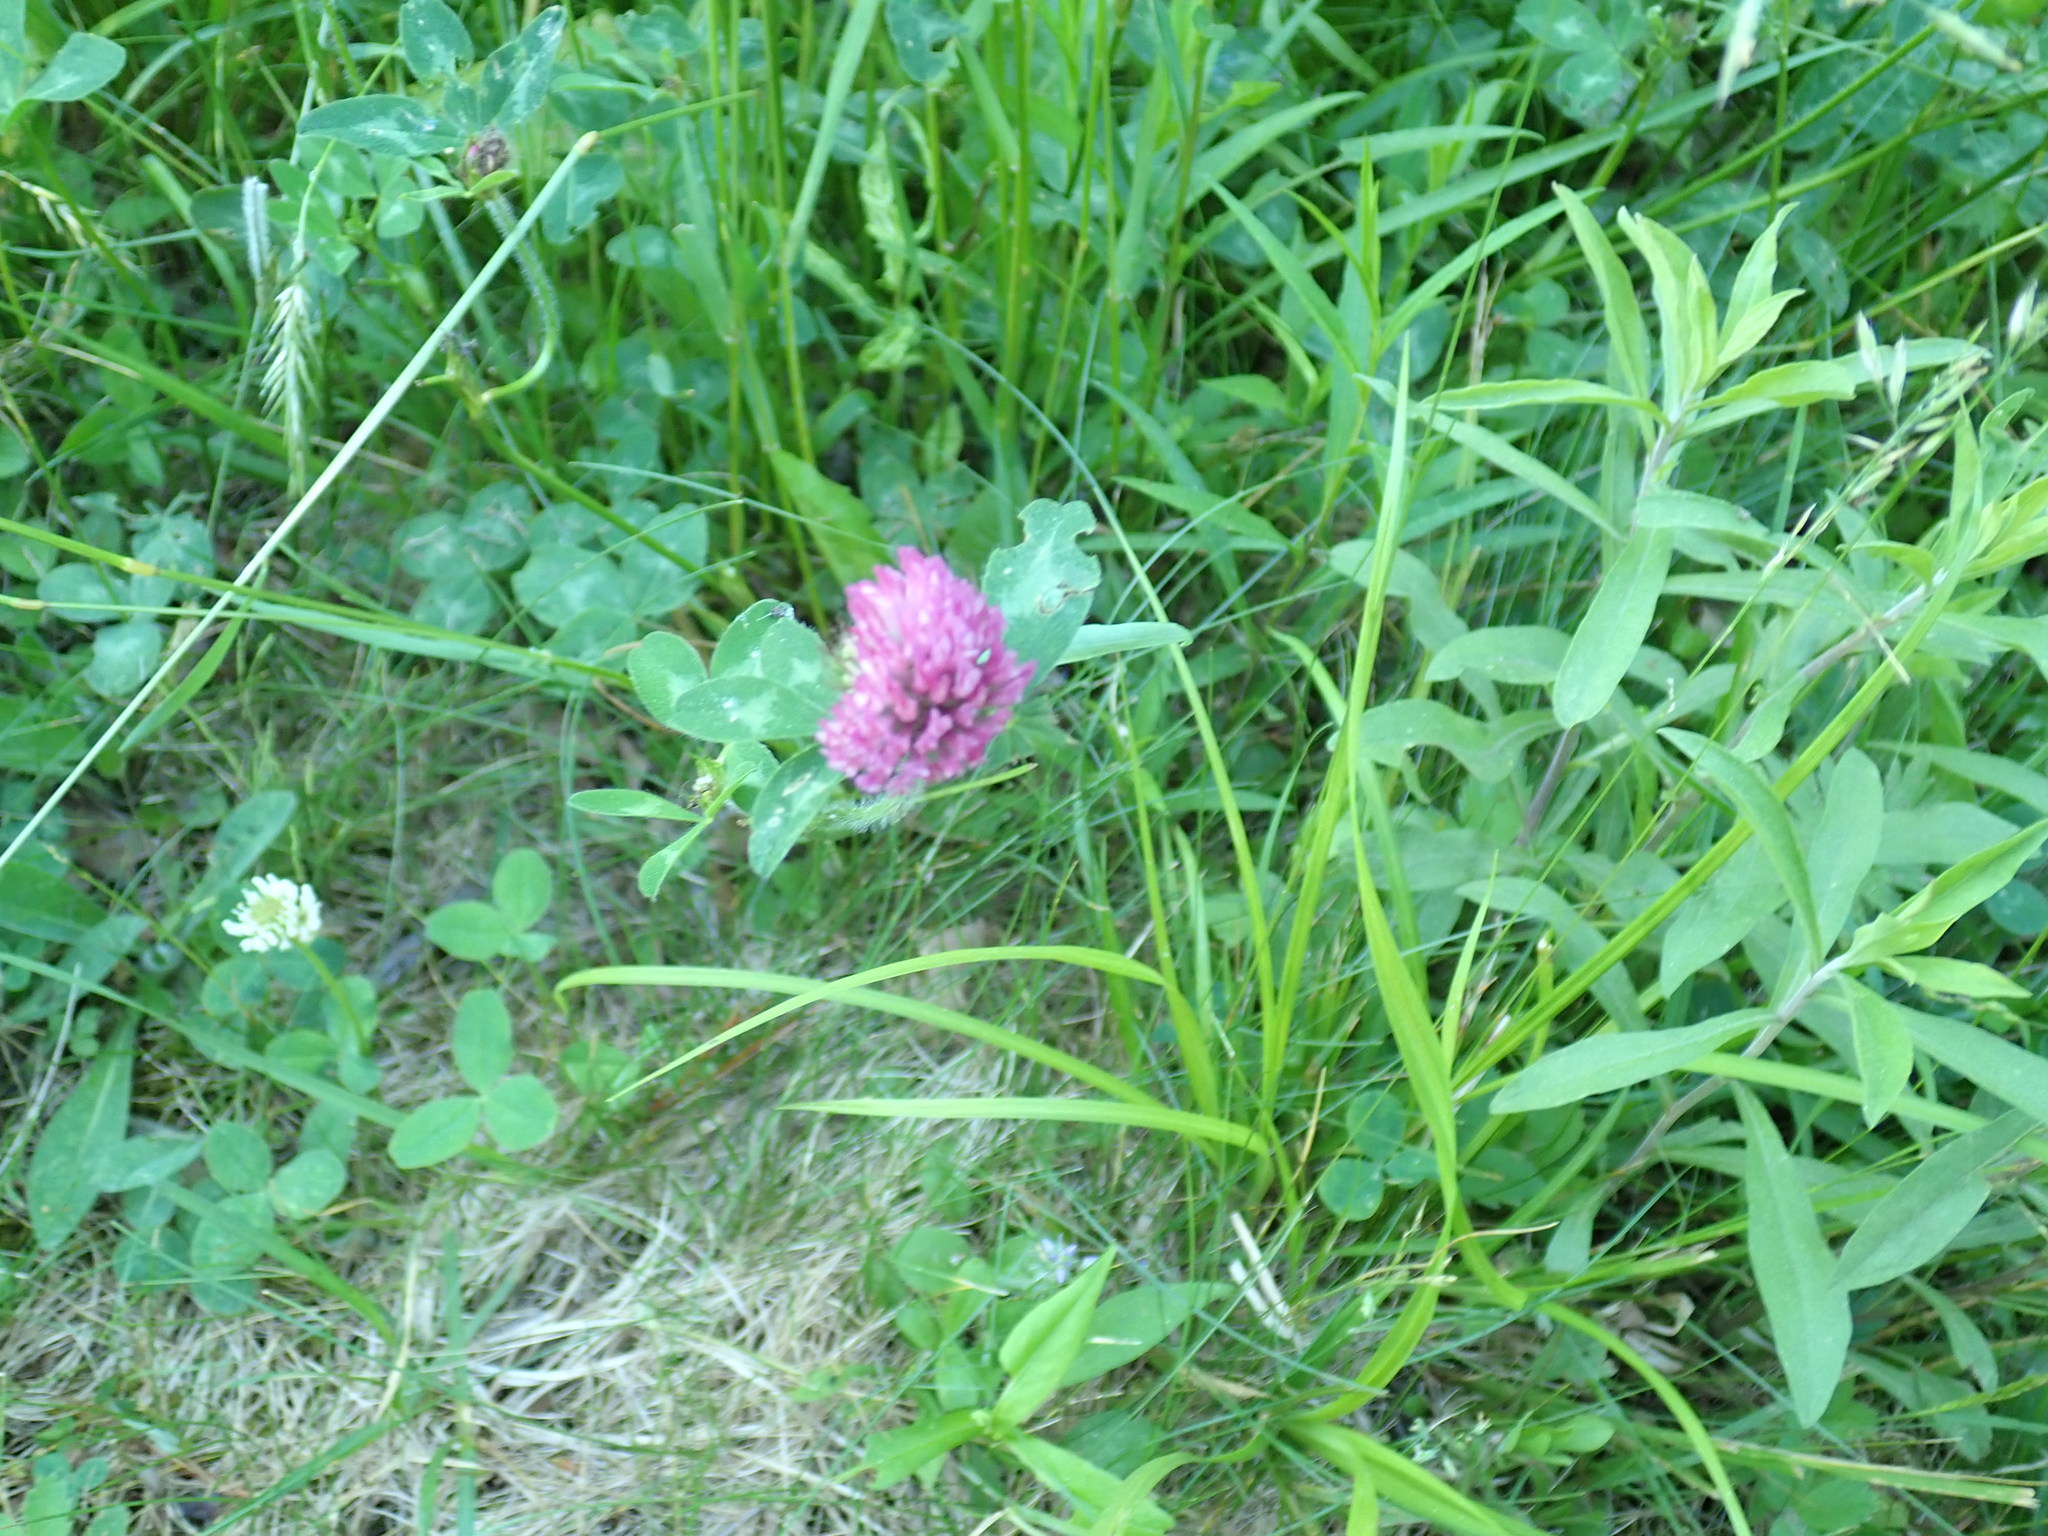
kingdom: Plantae
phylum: Tracheophyta
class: Magnoliopsida
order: Fabales
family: Fabaceae
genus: Trifolium
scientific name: Trifolium pratense
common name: Red clover
